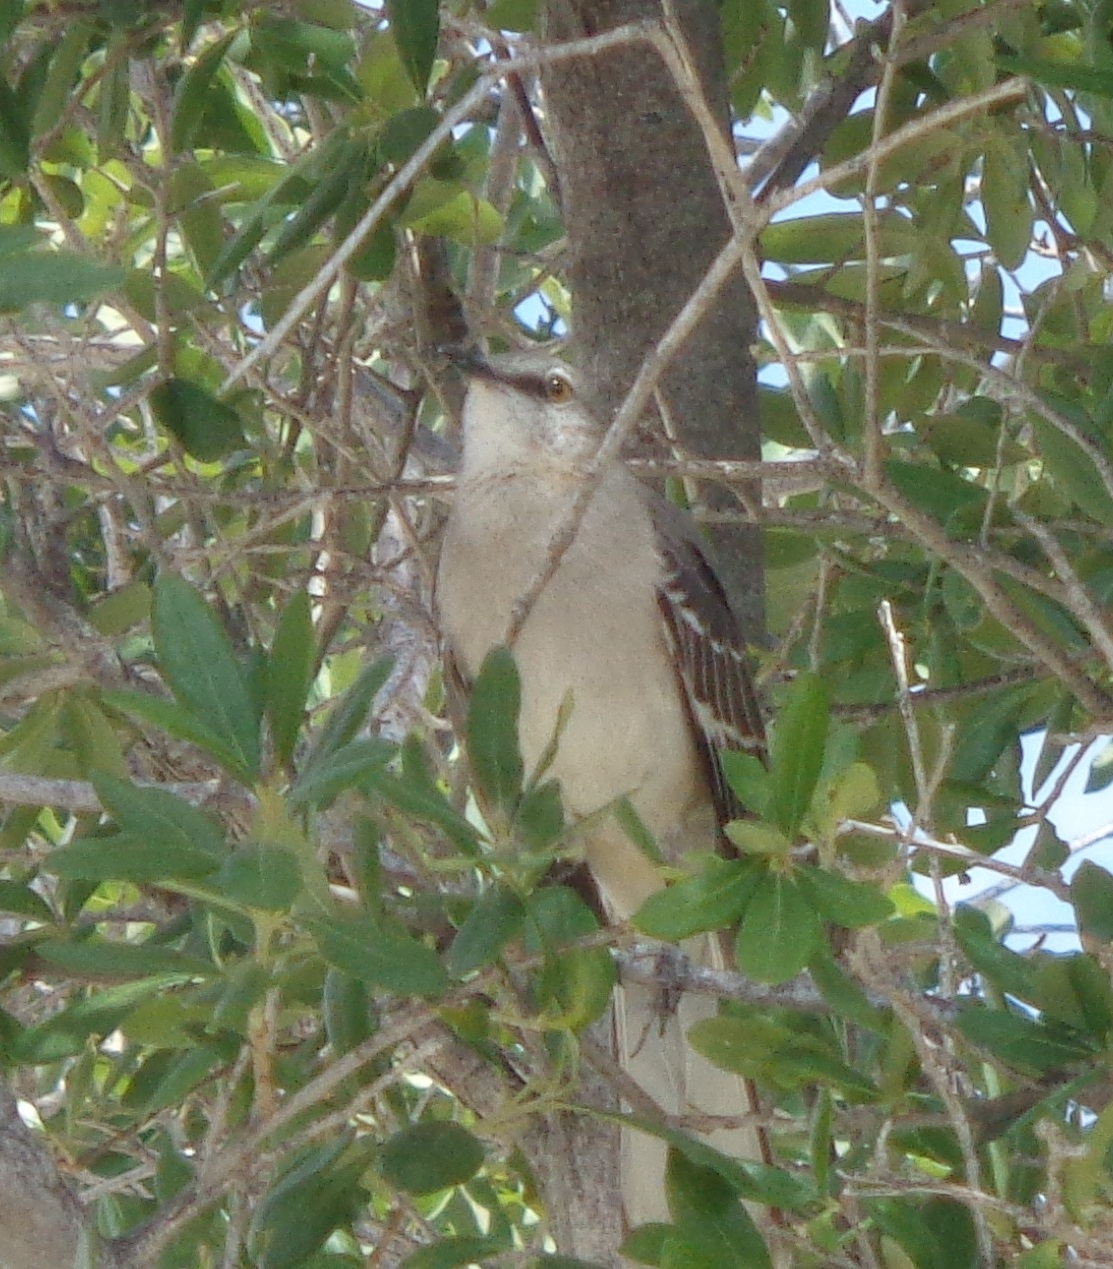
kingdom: Animalia
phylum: Chordata
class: Aves
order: Passeriformes
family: Mimidae
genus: Mimus
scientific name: Mimus polyglottos
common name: Northern mockingbird
